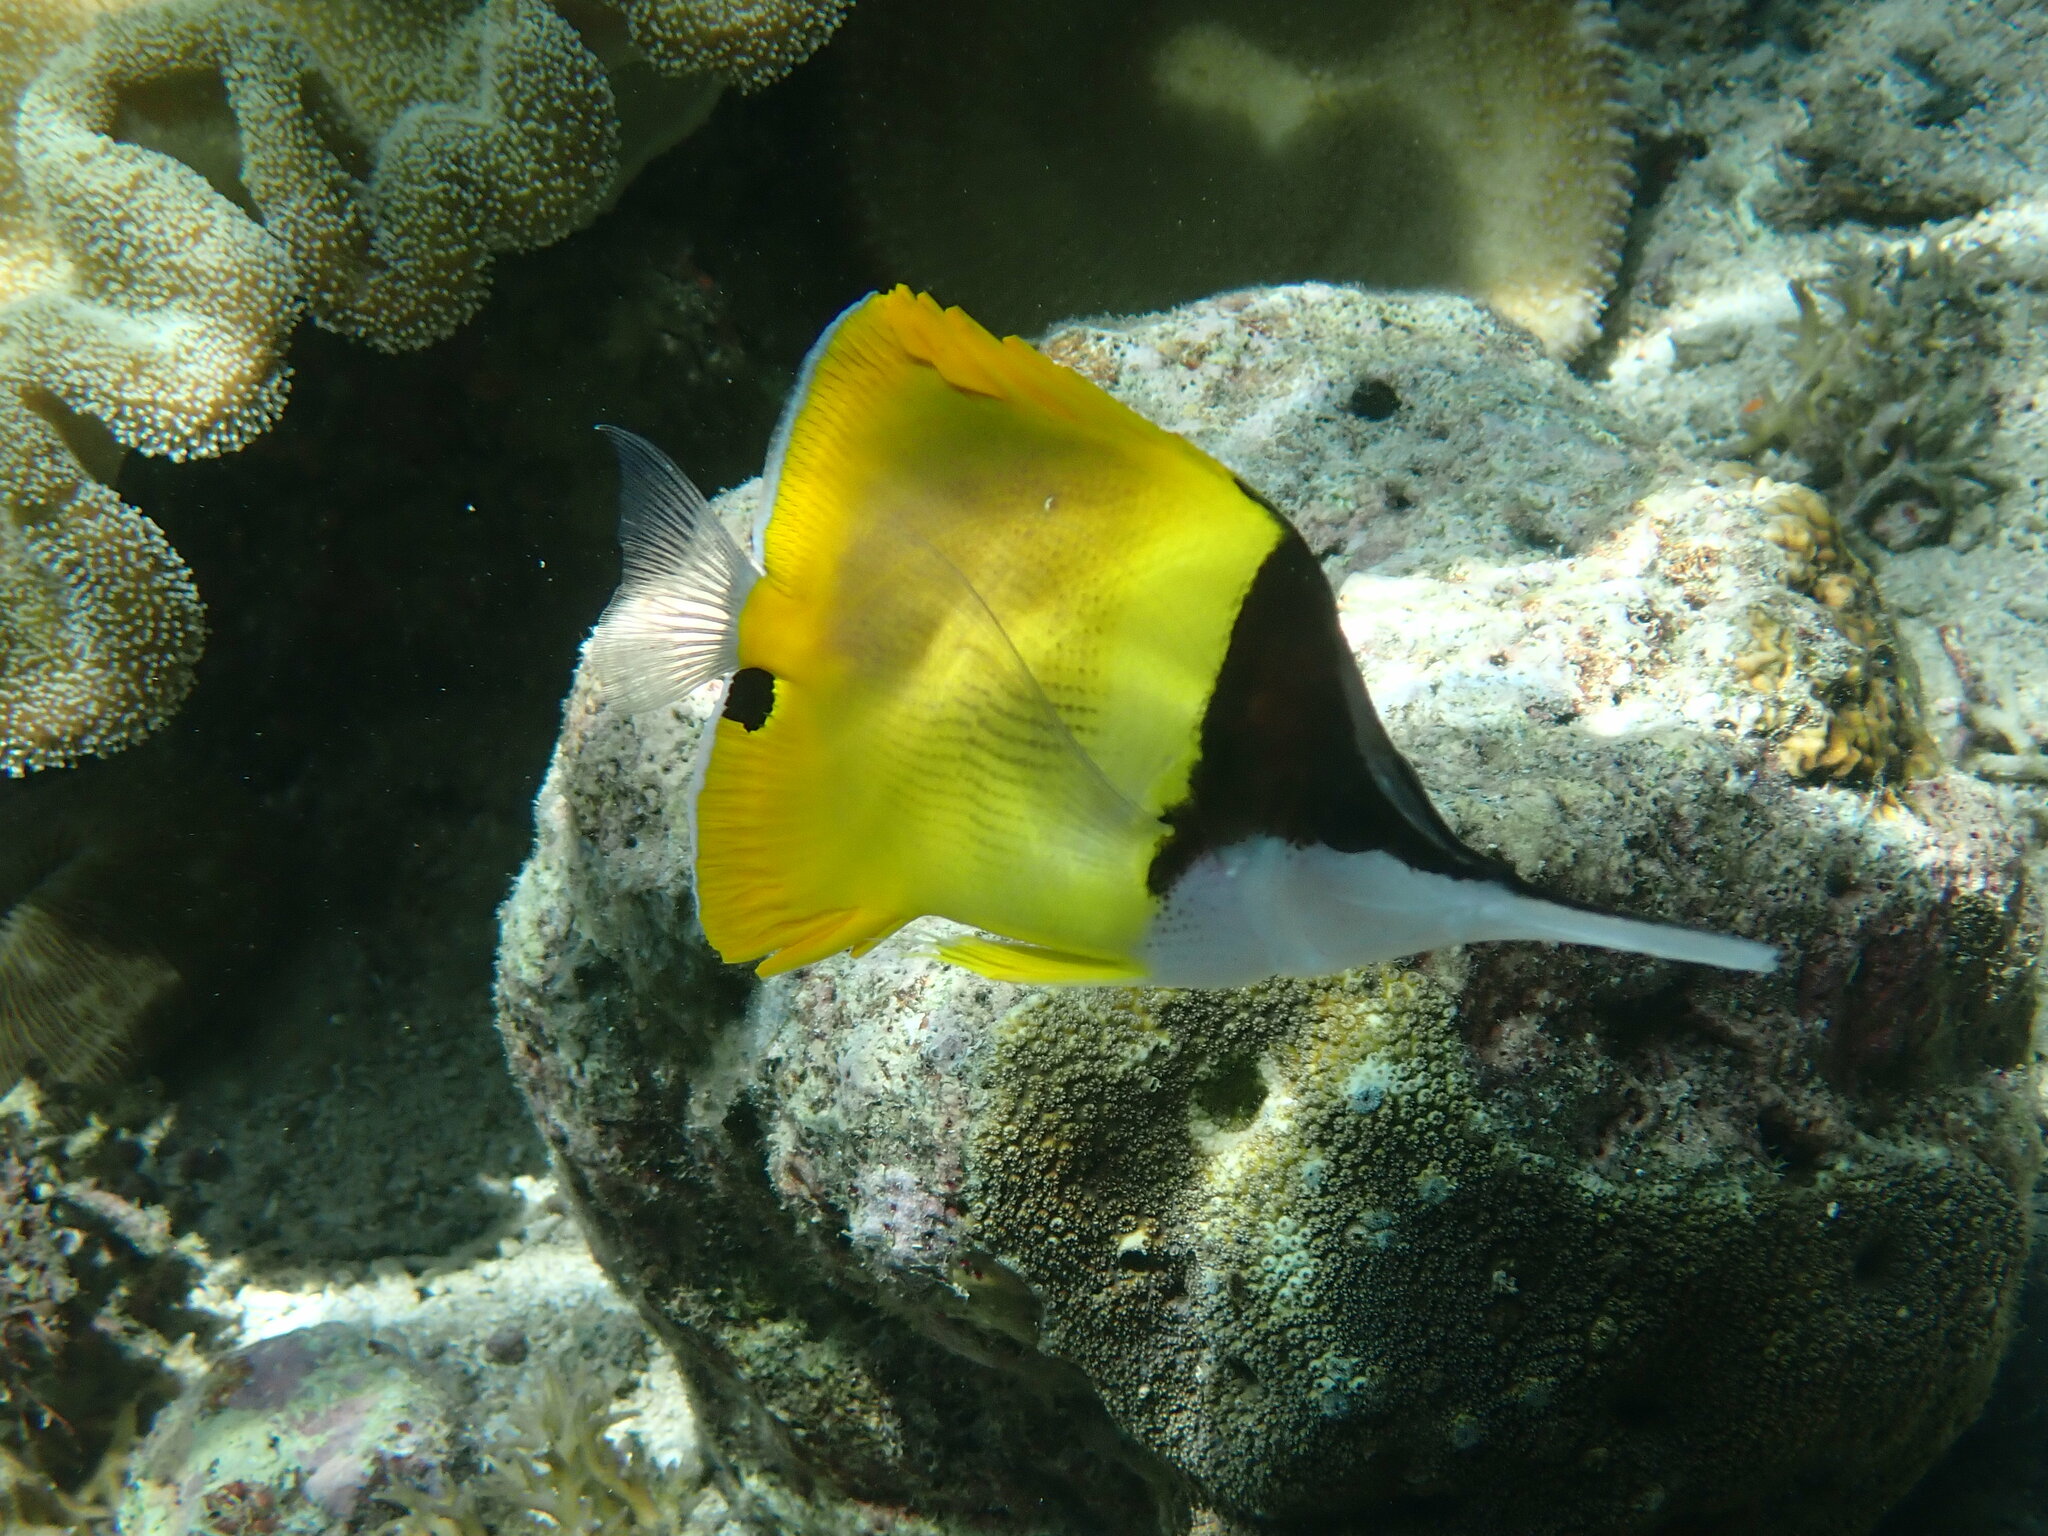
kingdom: Animalia
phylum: Chordata
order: Perciformes
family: Chaetodontidae
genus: Forcipiger
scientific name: Forcipiger longirostris
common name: Longnose butterflyfish
